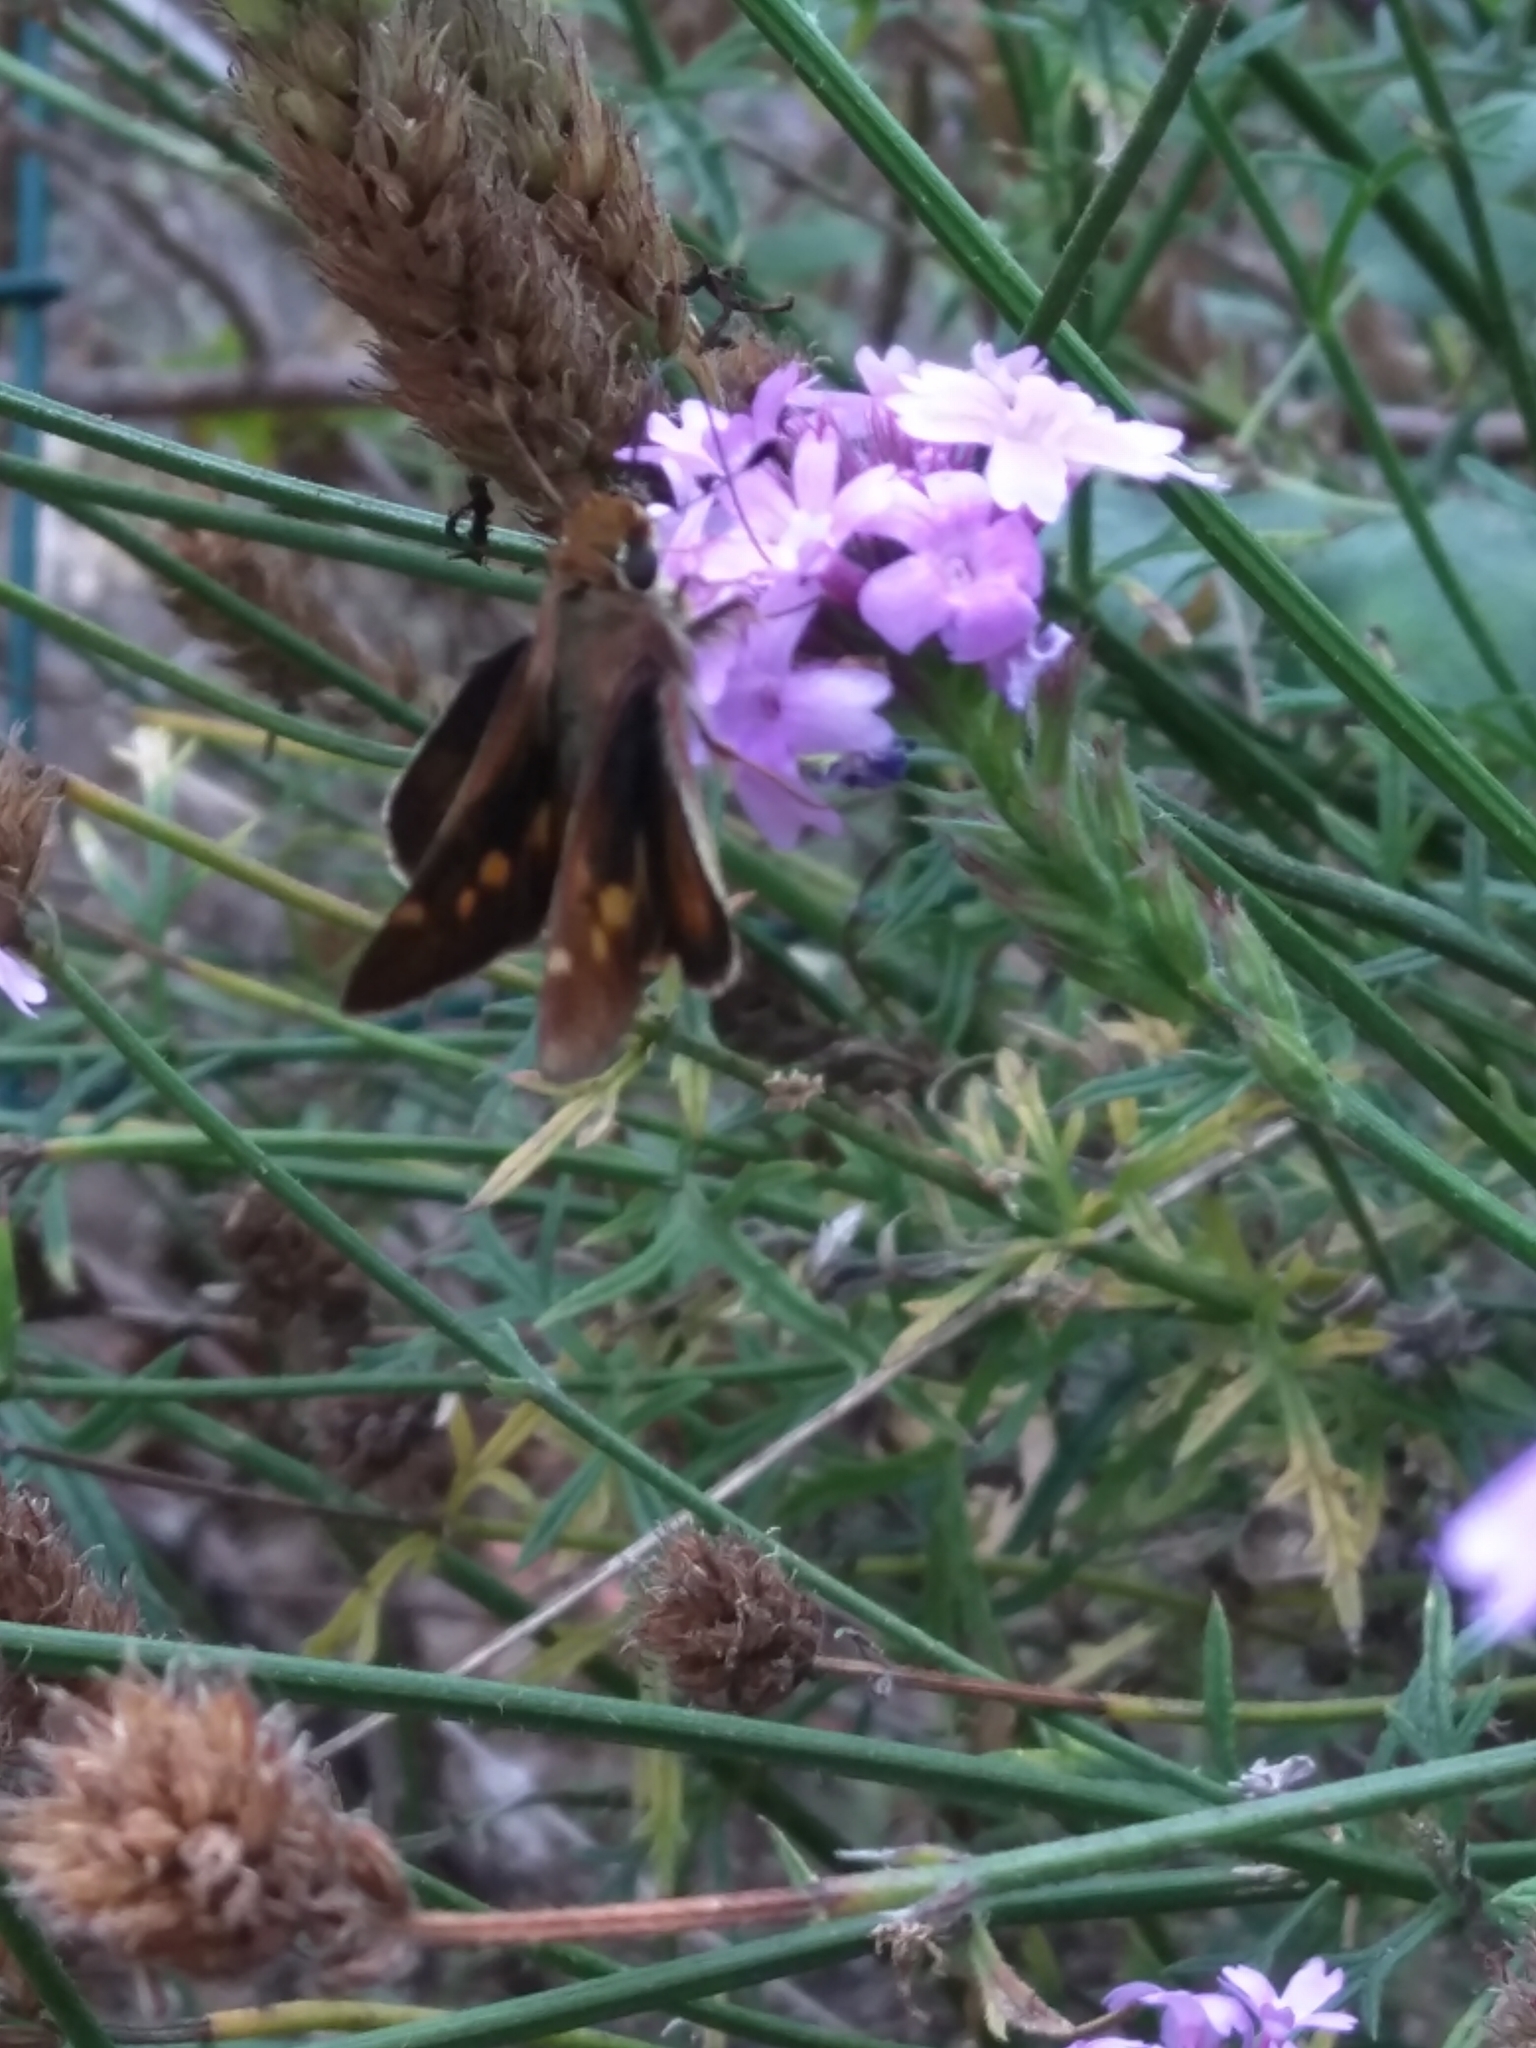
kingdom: Animalia
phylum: Arthropoda
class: Insecta
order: Lepidoptera
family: Hesperiidae
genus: Lon
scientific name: Lon melane
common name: Umber skipper
